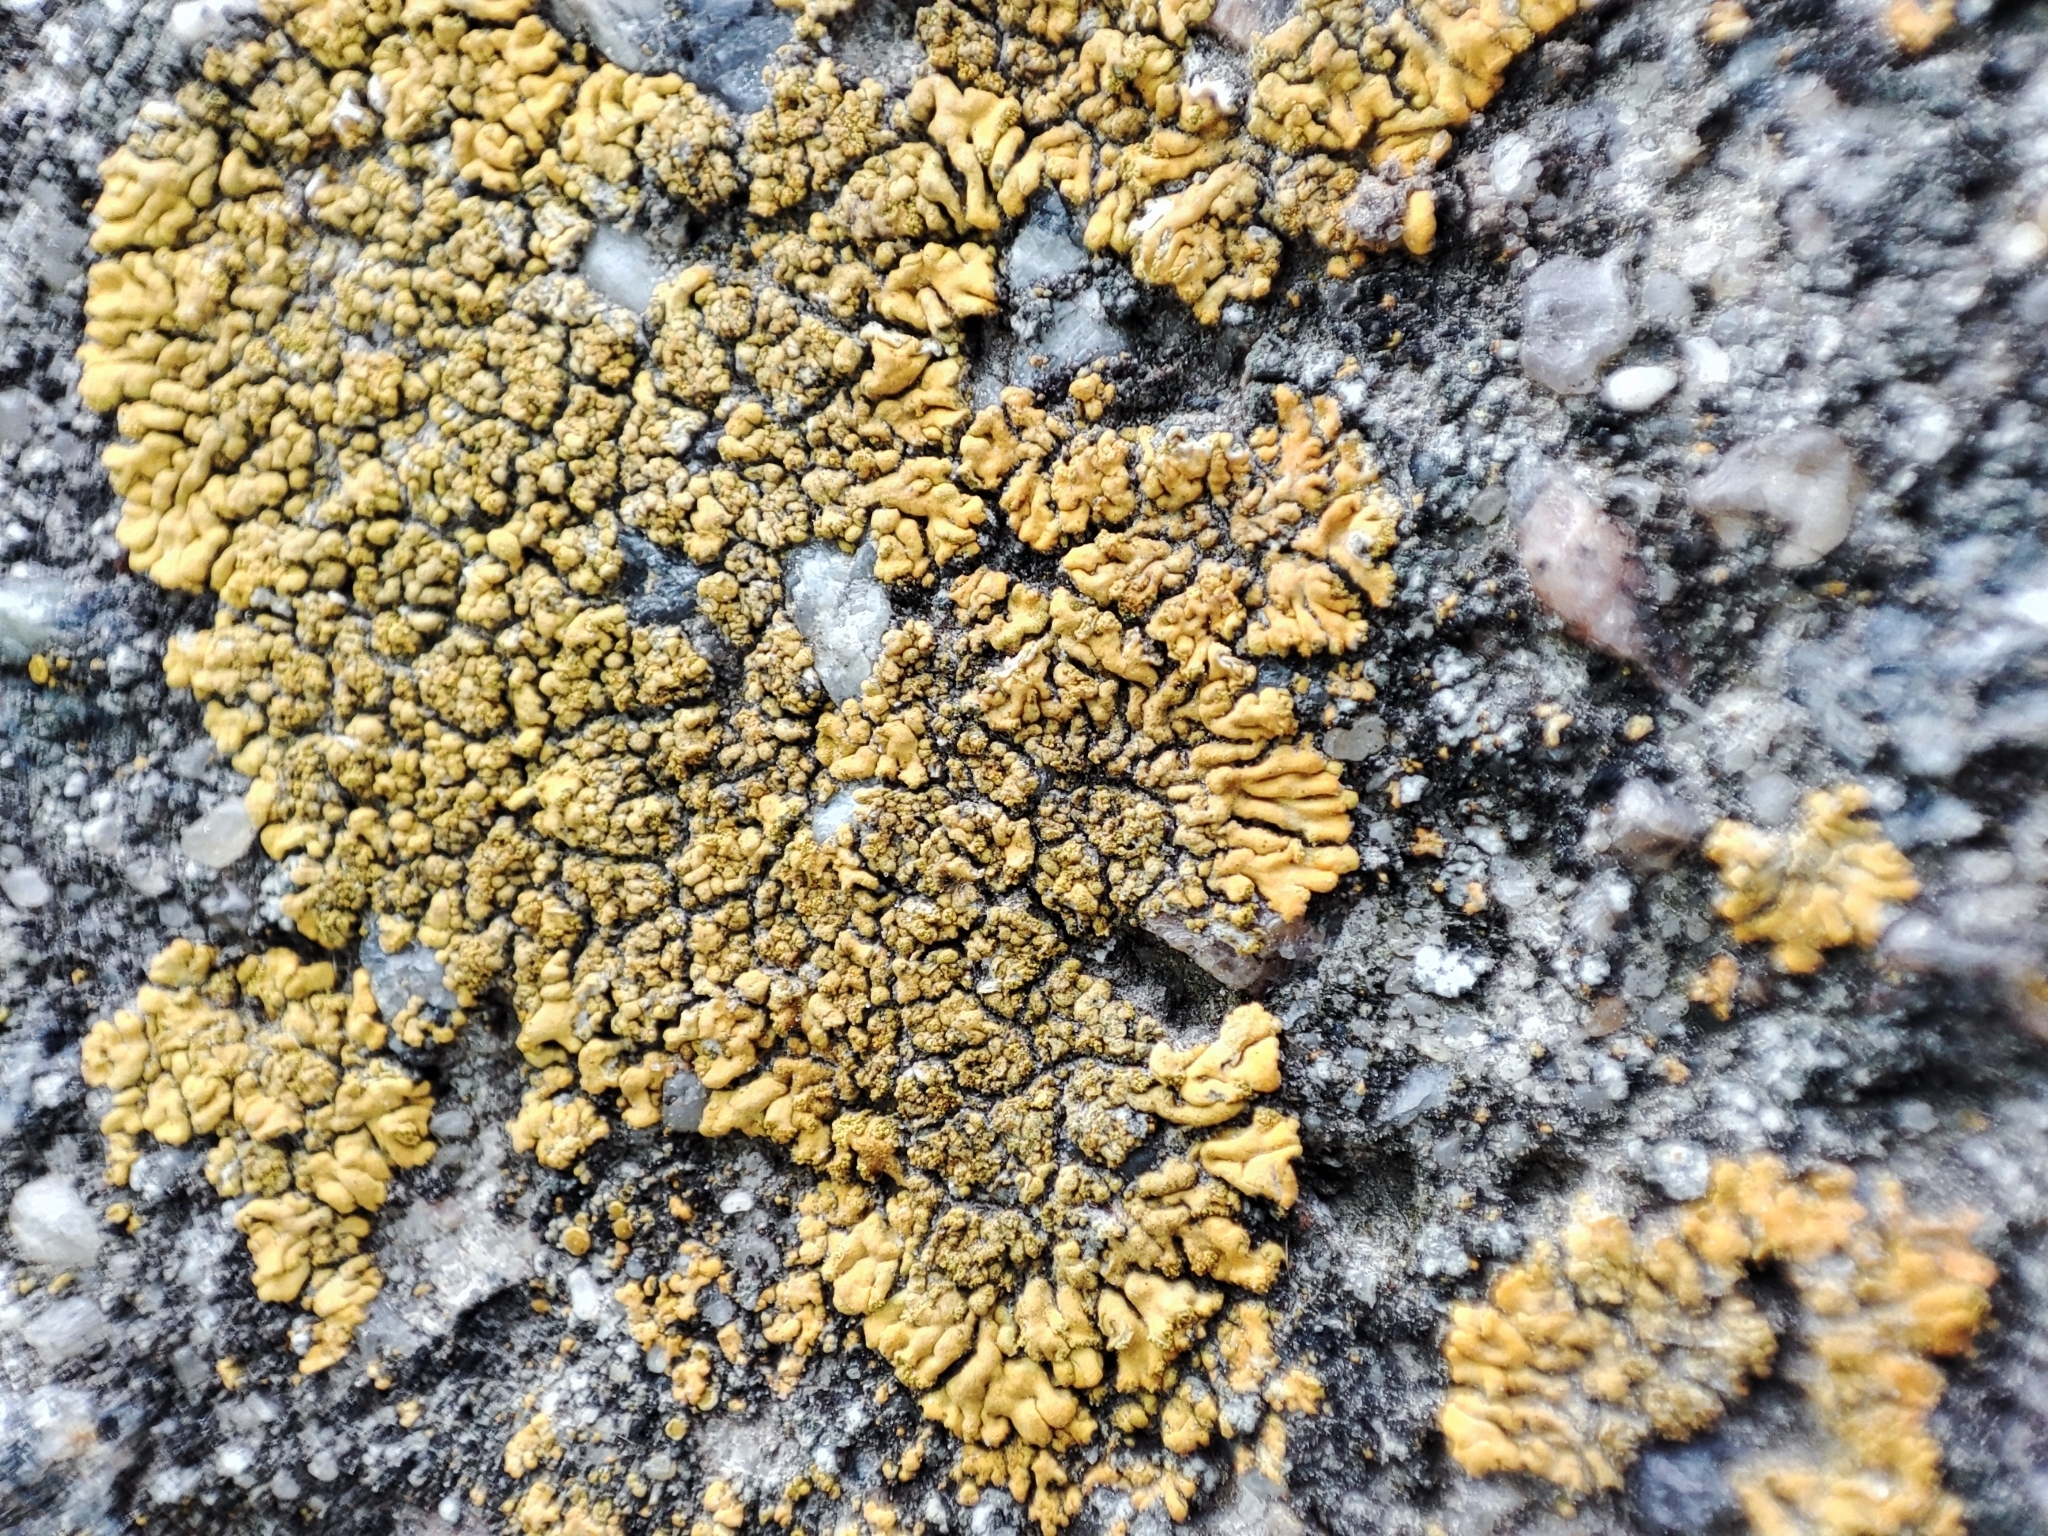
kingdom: Fungi
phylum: Ascomycota
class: Lecanoromycetes
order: Teloschistales
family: Teloschistaceae
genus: Calogaya
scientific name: Calogaya decipiens
